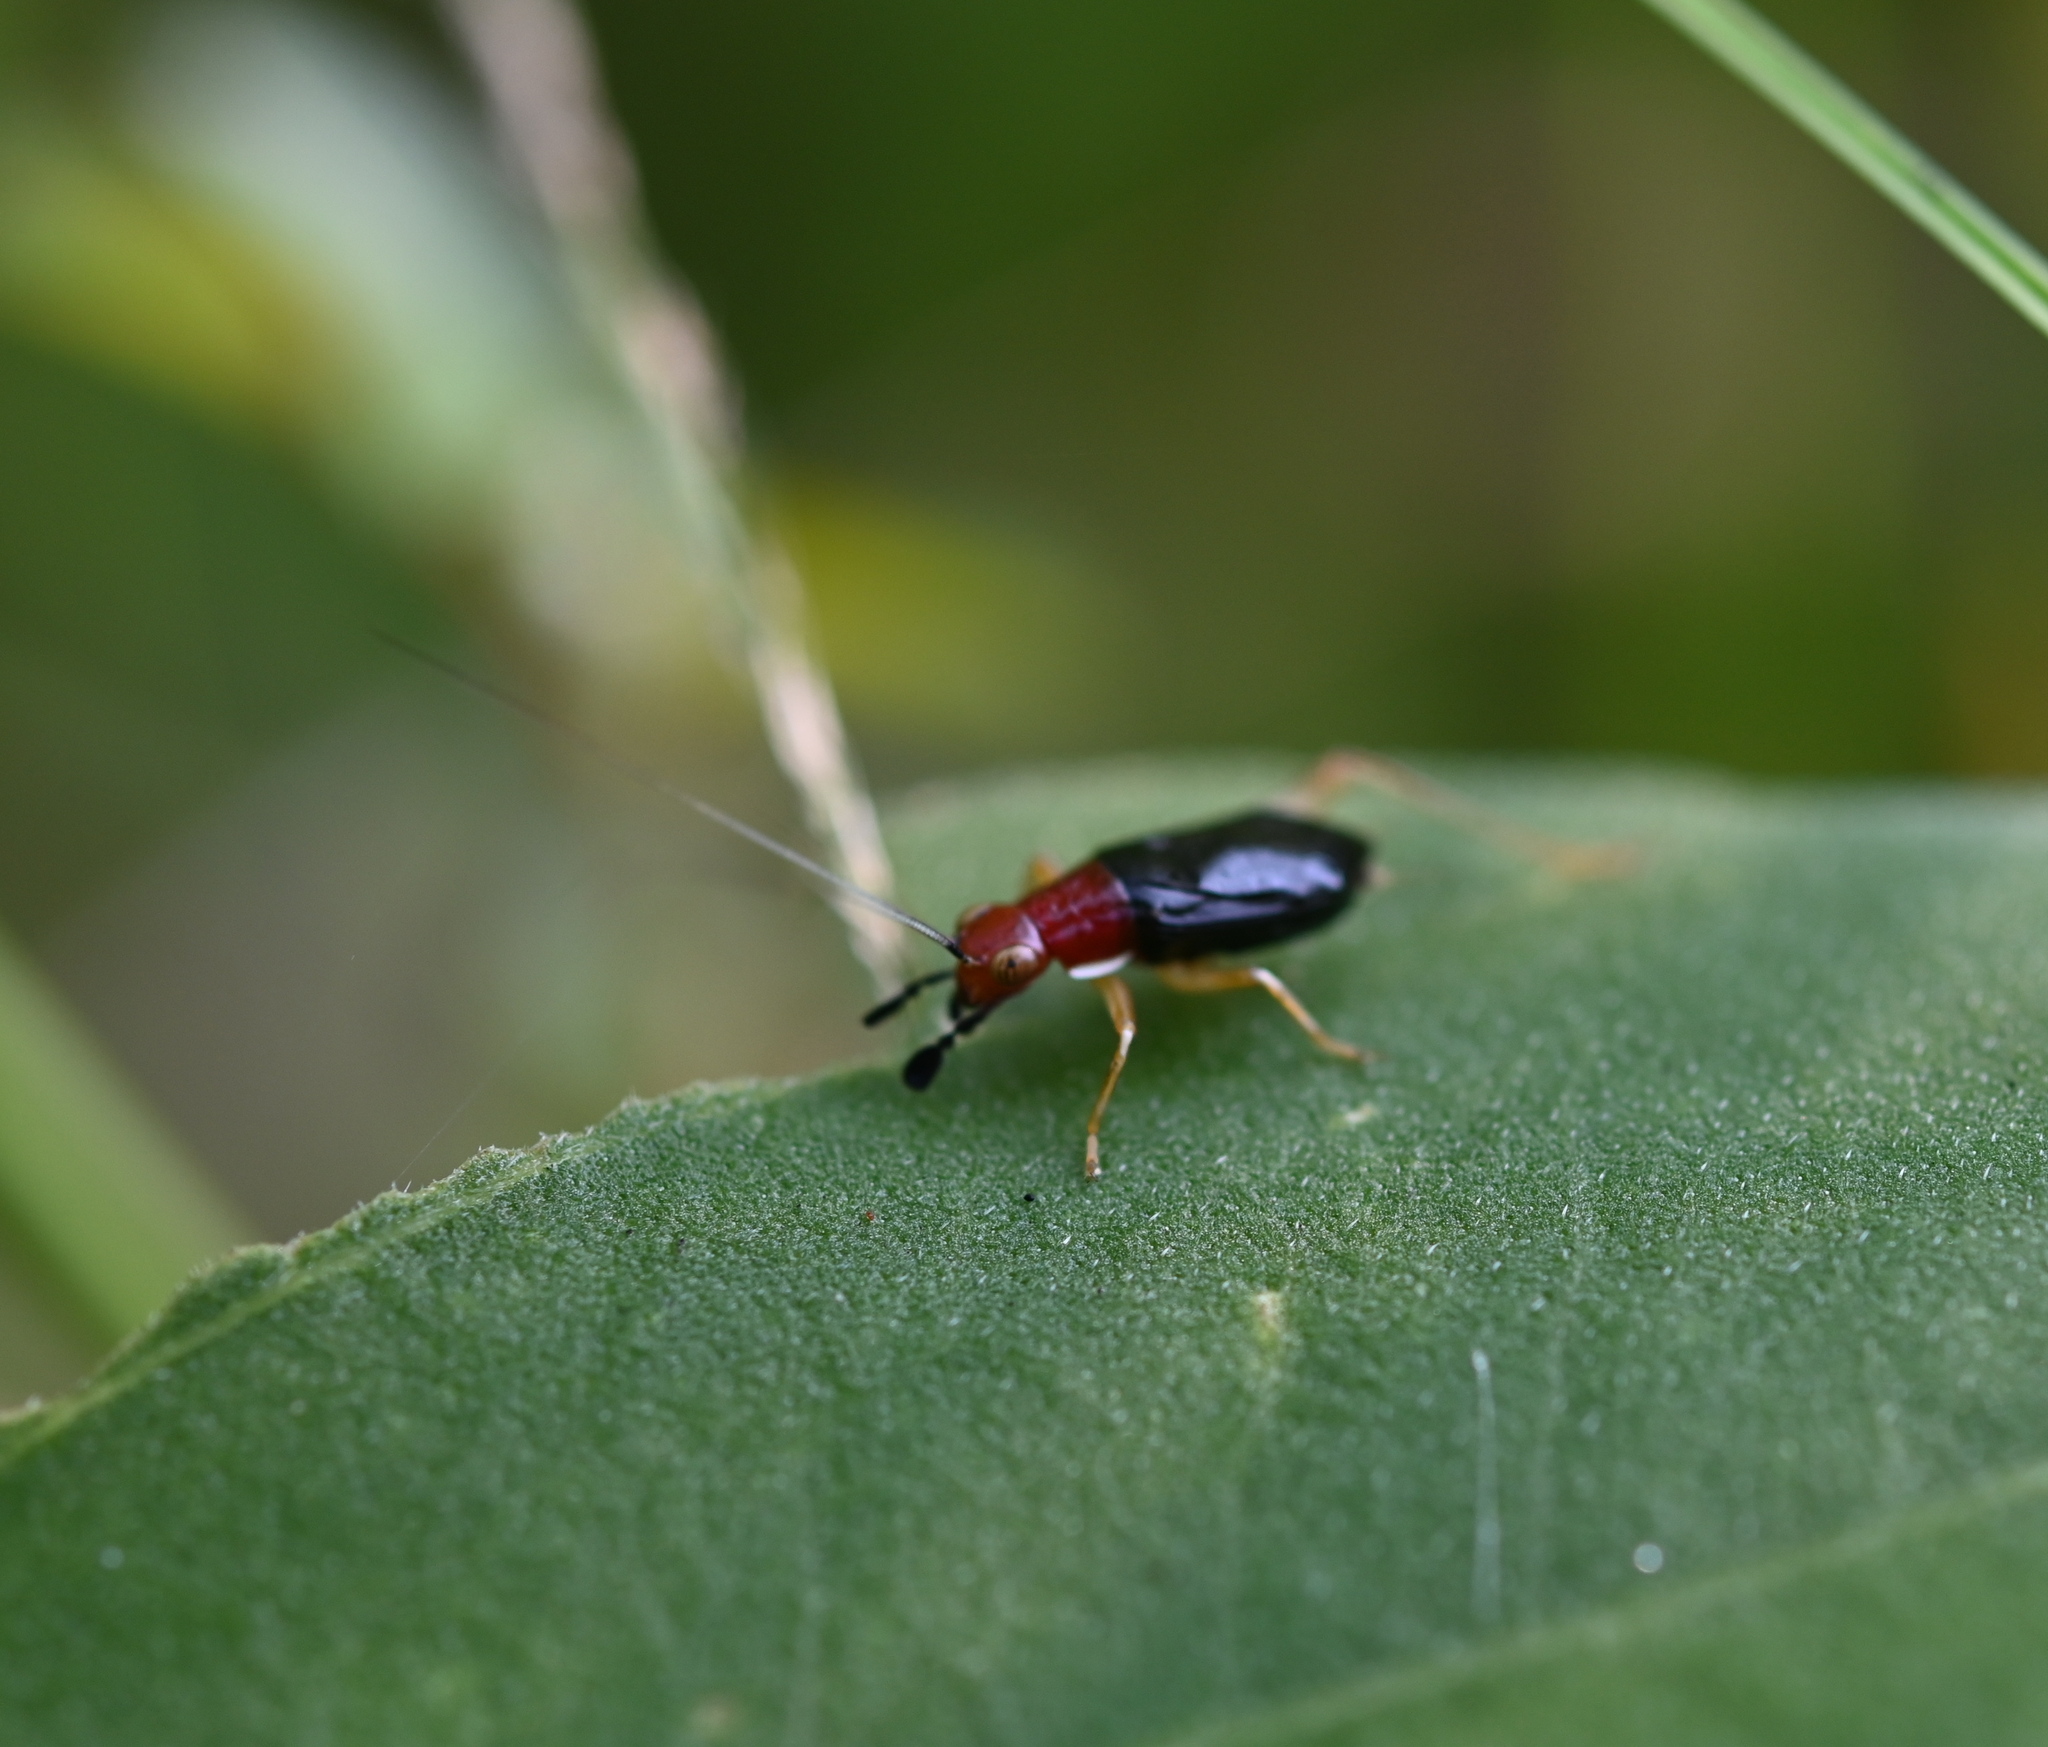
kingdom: Animalia
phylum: Arthropoda
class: Insecta
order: Orthoptera
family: Trigonidiidae
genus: Phyllopalpus
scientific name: Phyllopalpus pulchellus
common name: Handsome trig
